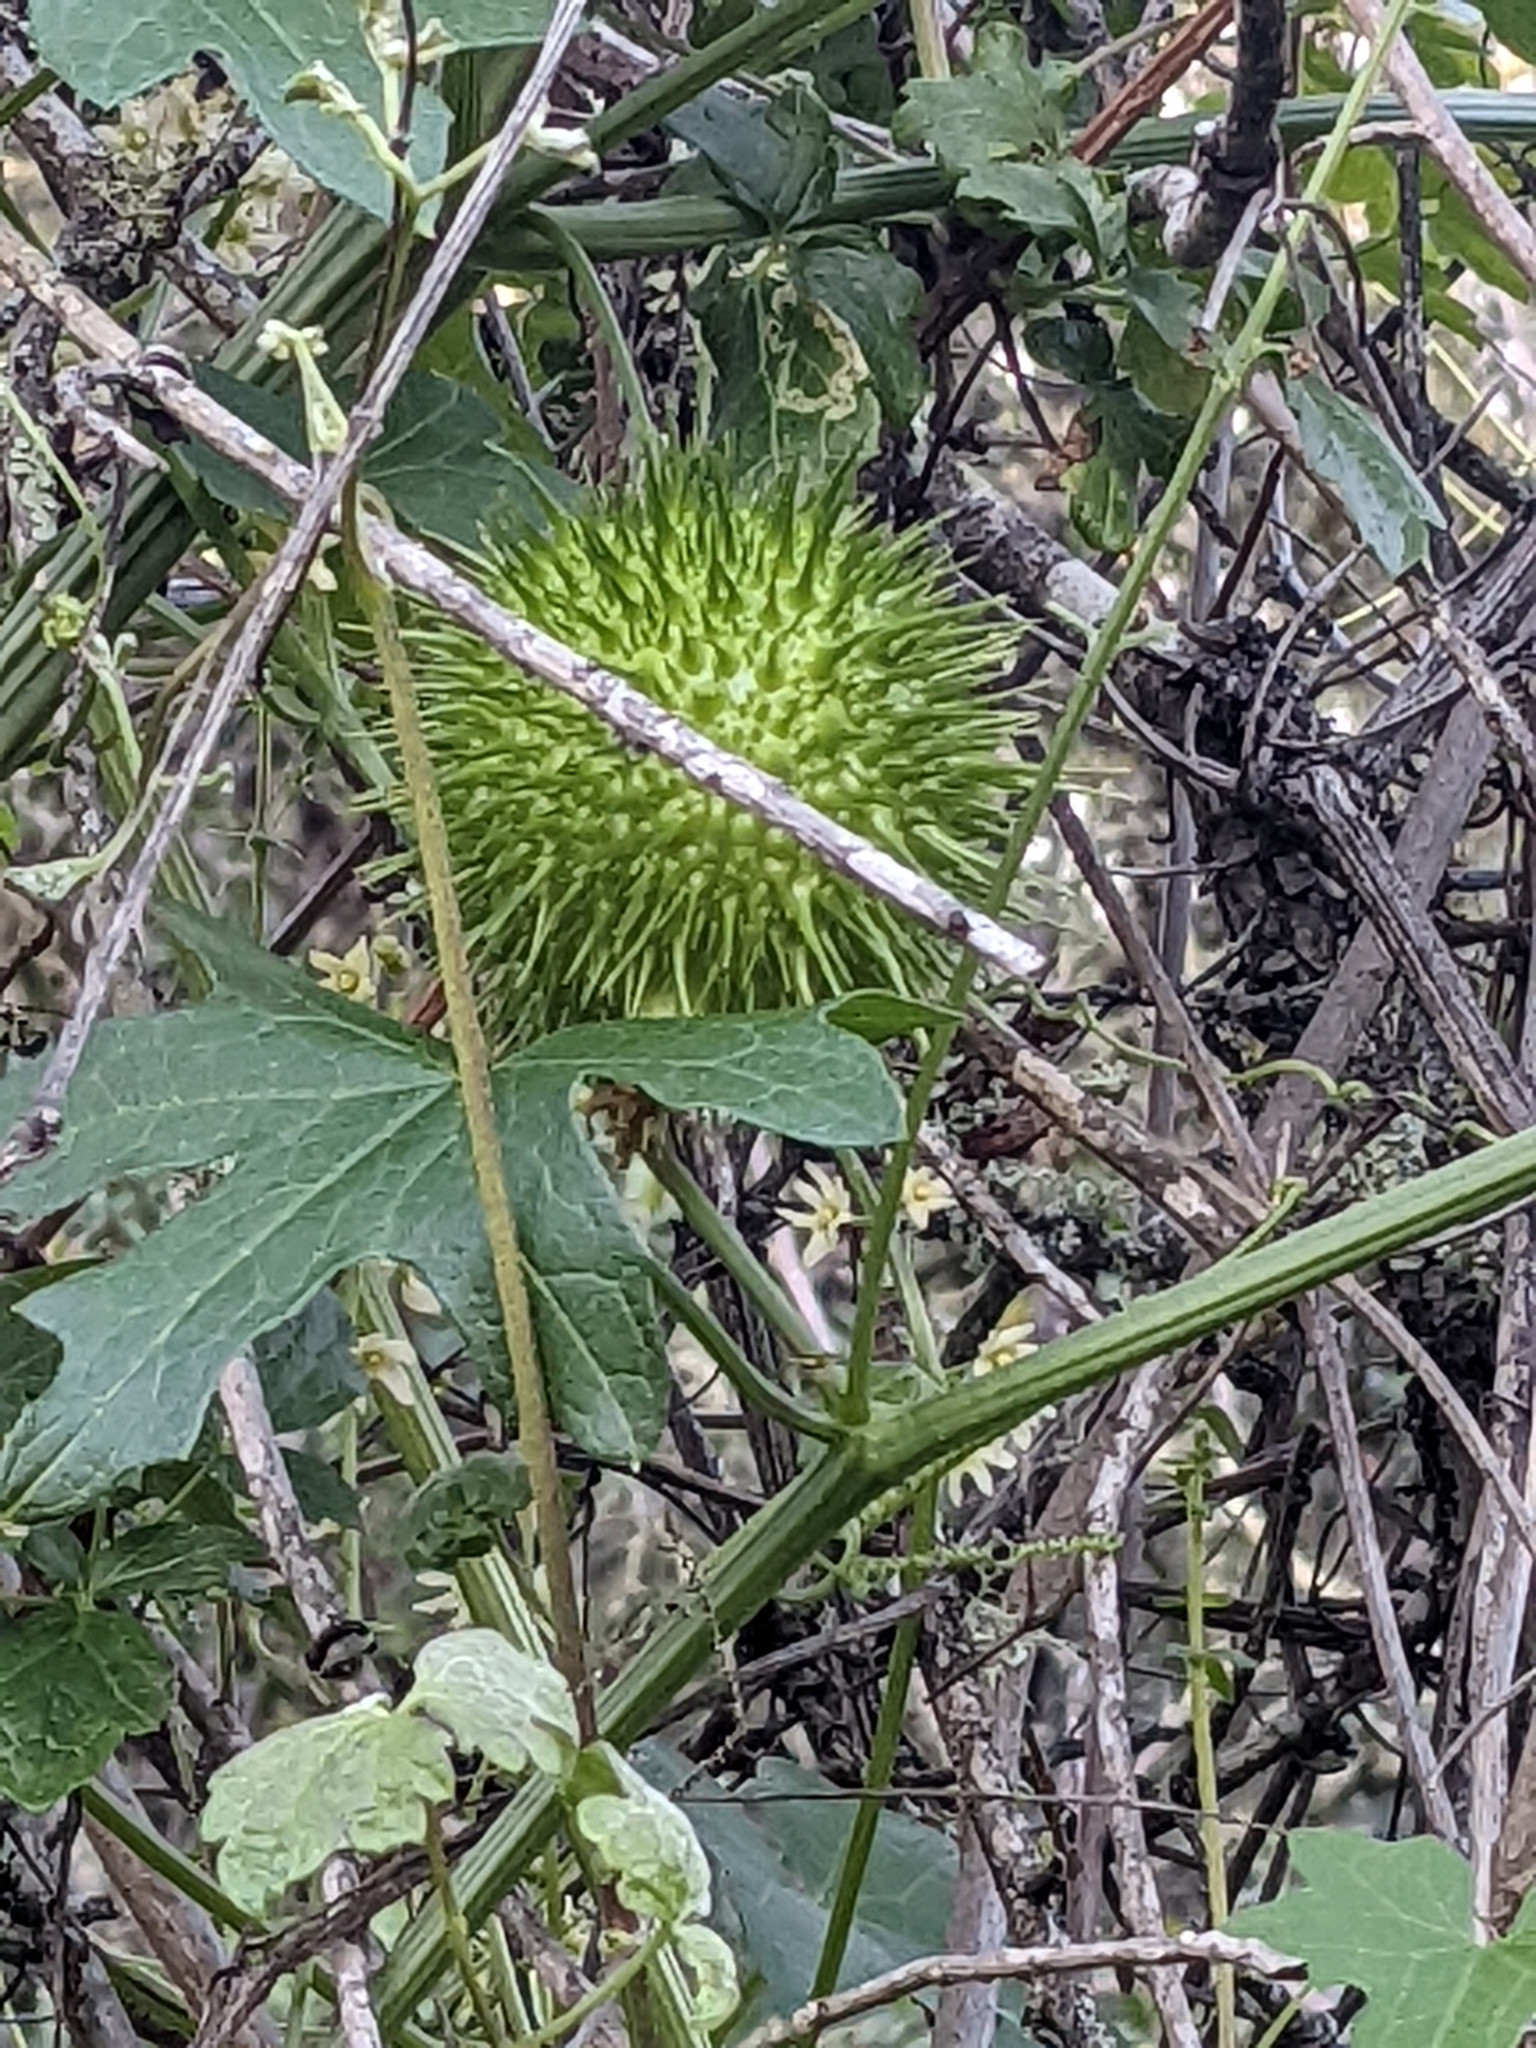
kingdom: Plantae
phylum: Tracheophyta
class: Magnoliopsida
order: Cucurbitales
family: Cucurbitaceae
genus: Marah
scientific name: Marah fabacea
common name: California manroot
